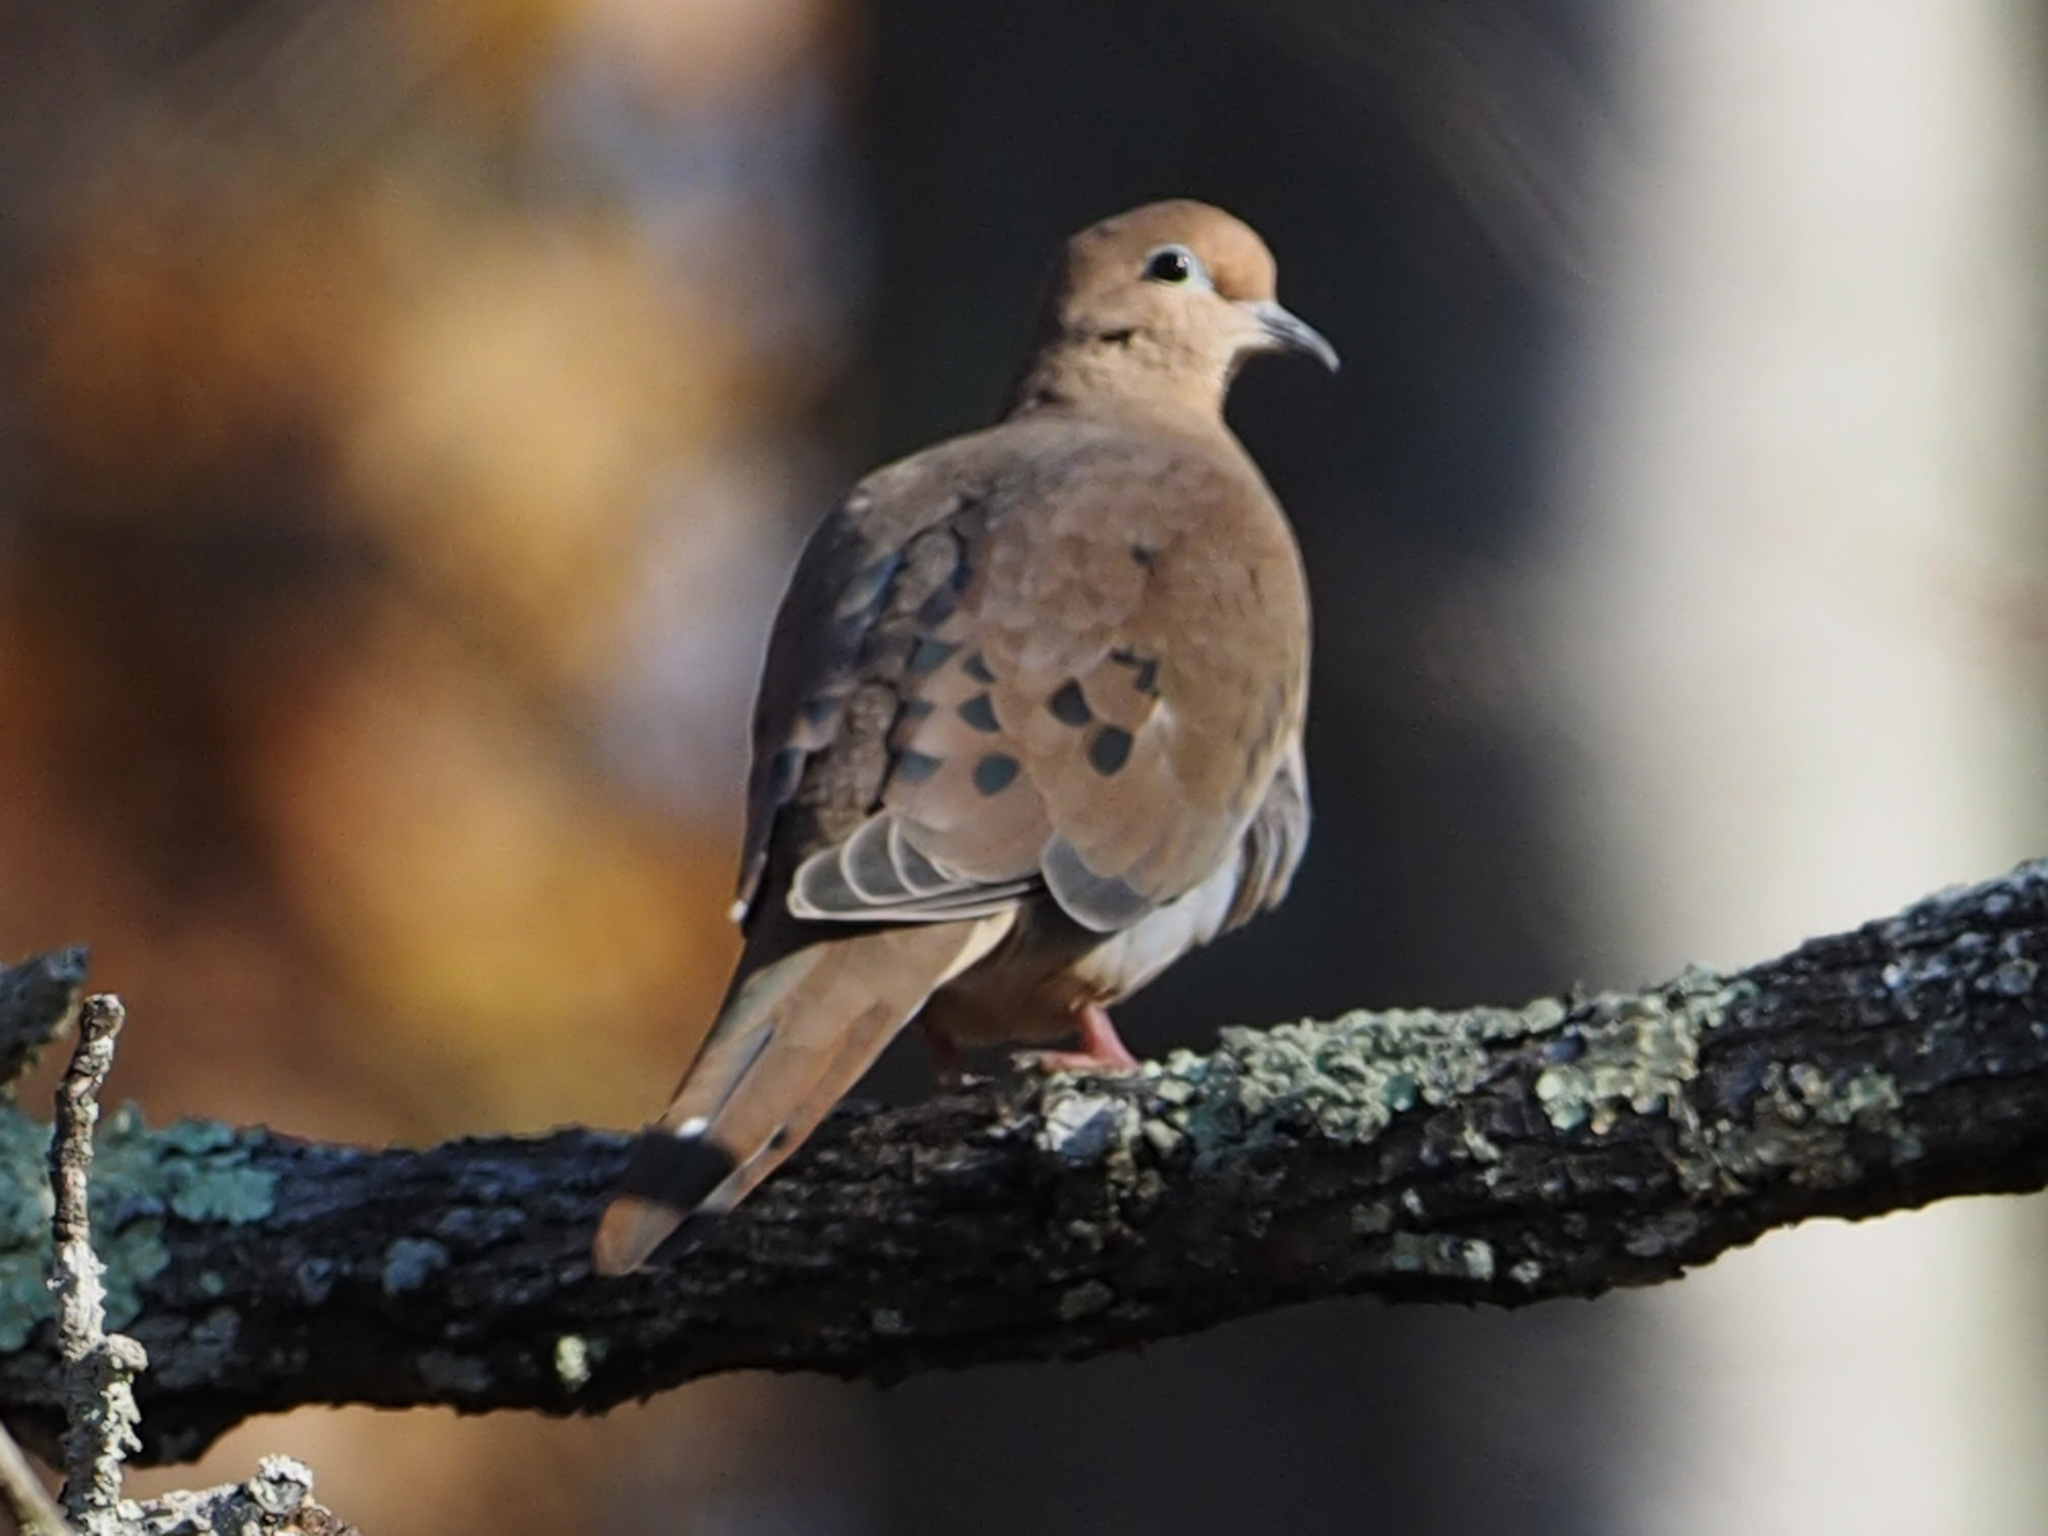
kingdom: Animalia
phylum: Chordata
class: Aves
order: Columbiformes
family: Columbidae
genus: Zenaida
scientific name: Zenaida macroura
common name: Mourning dove
